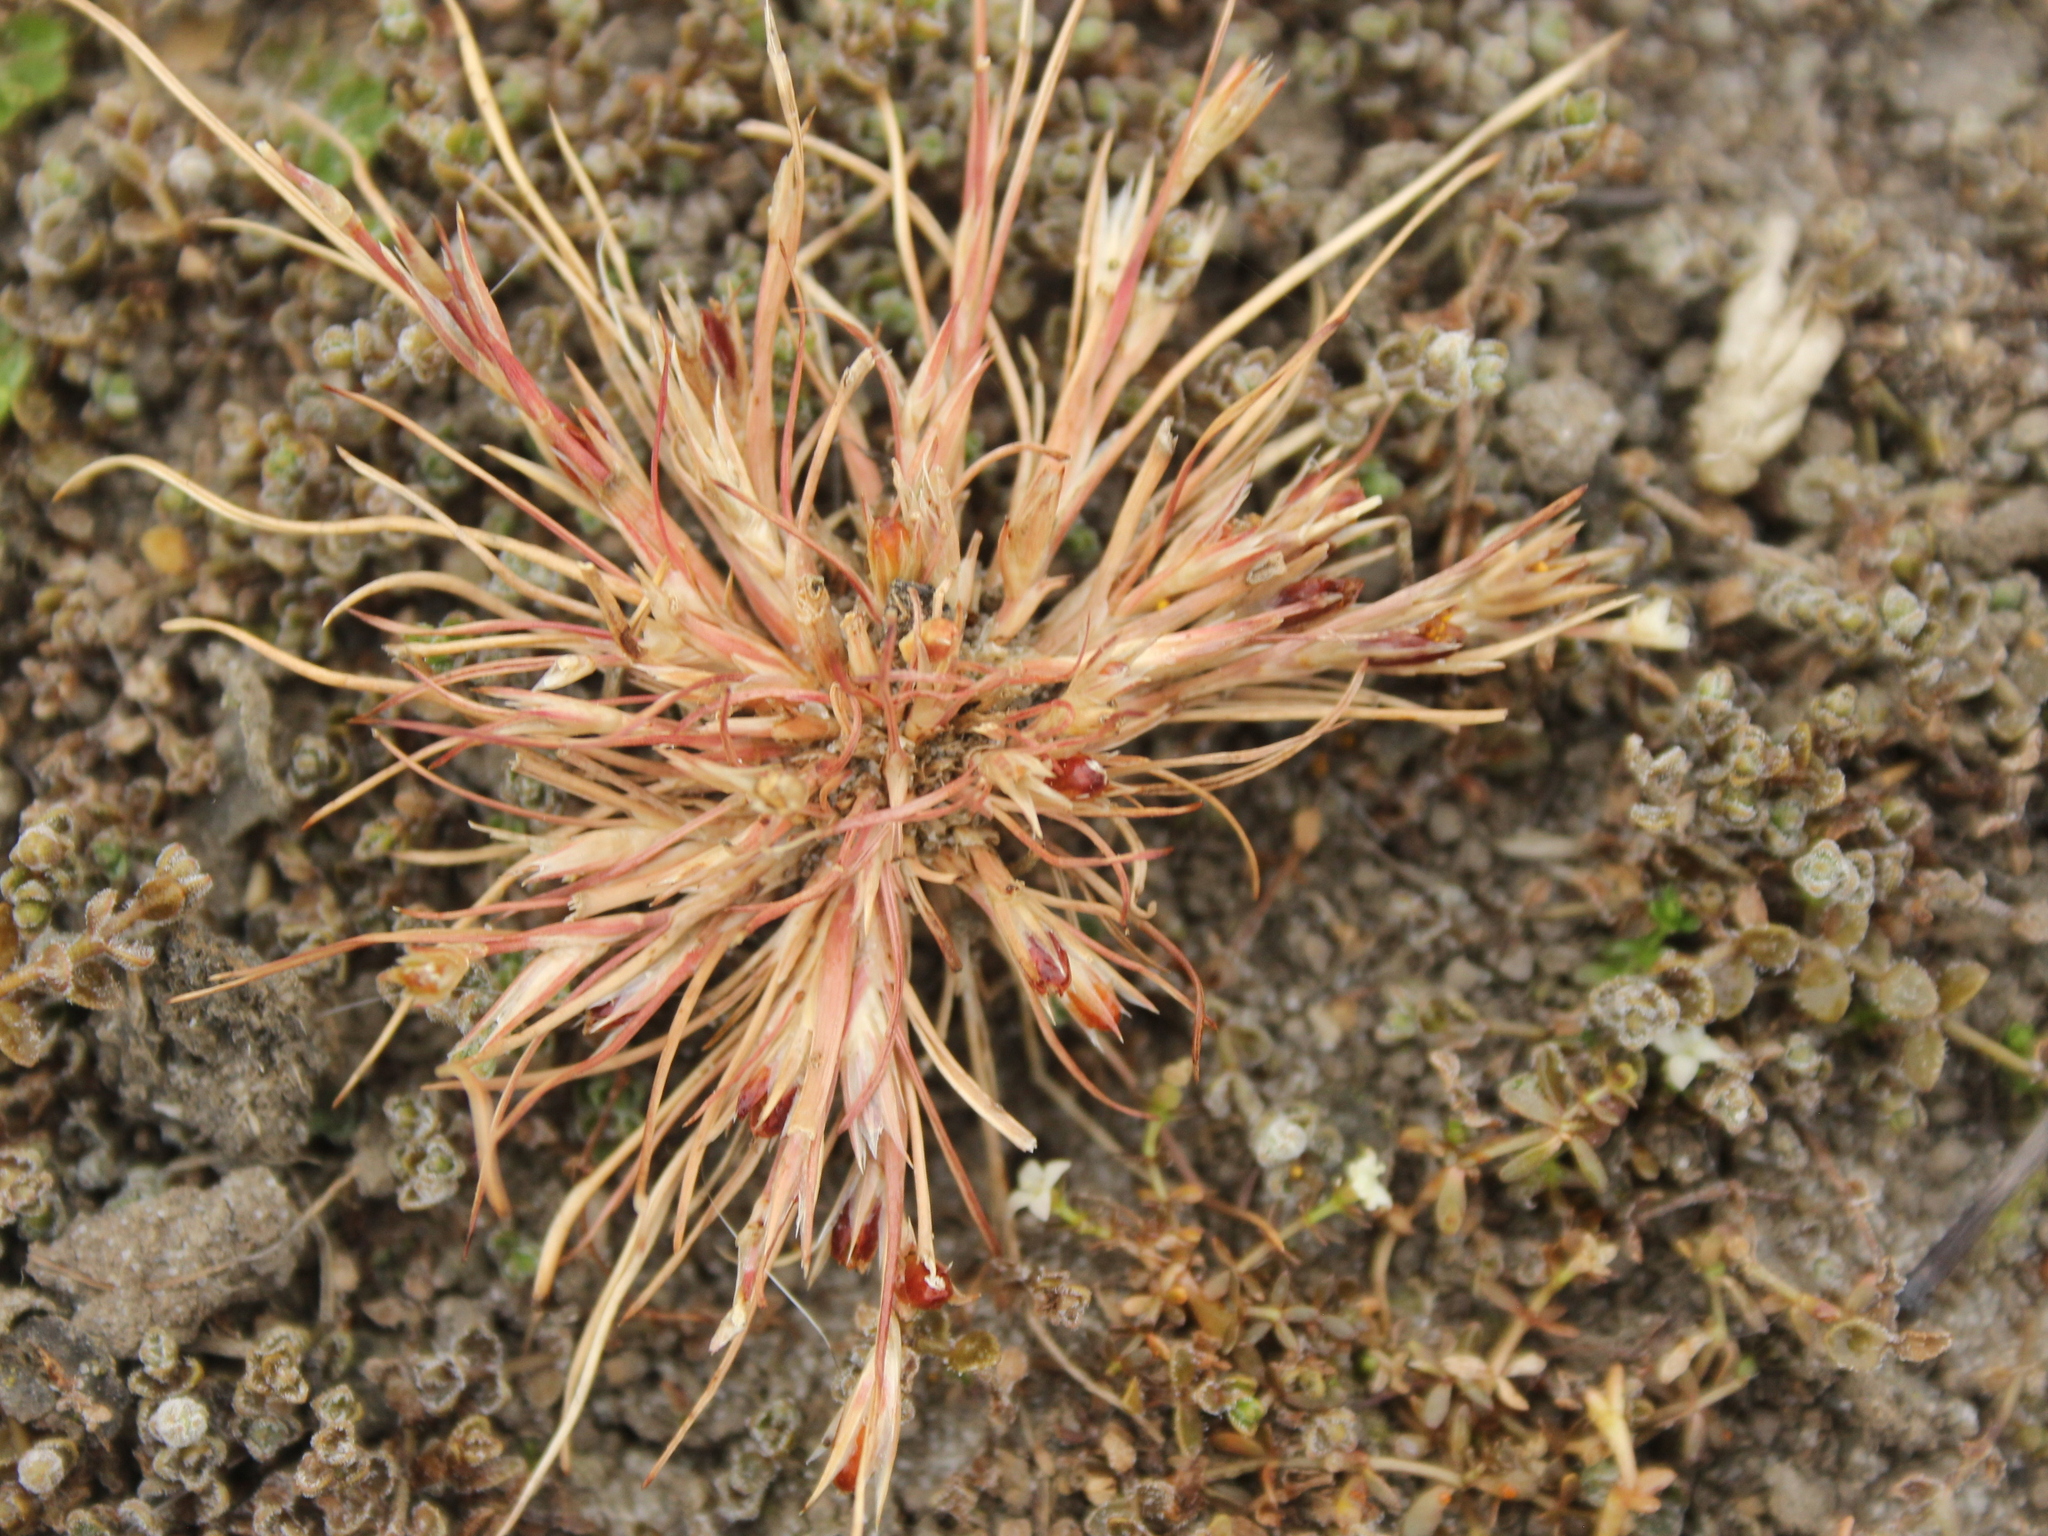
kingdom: Plantae
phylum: Tracheophyta
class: Liliopsida
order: Poales
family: Cyperaceae
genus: Schoenus
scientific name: Schoenus nitens
